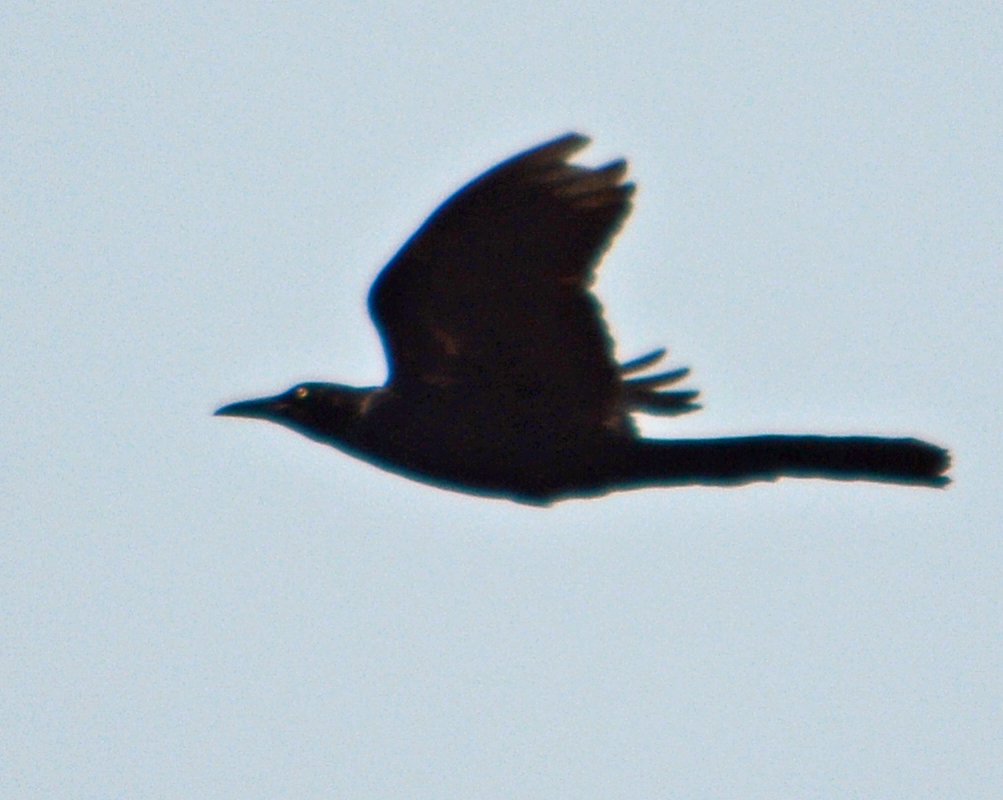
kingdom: Animalia
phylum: Chordata
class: Aves
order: Passeriformes
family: Icteridae
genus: Quiscalus
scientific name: Quiscalus mexicanus
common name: Great-tailed grackle
